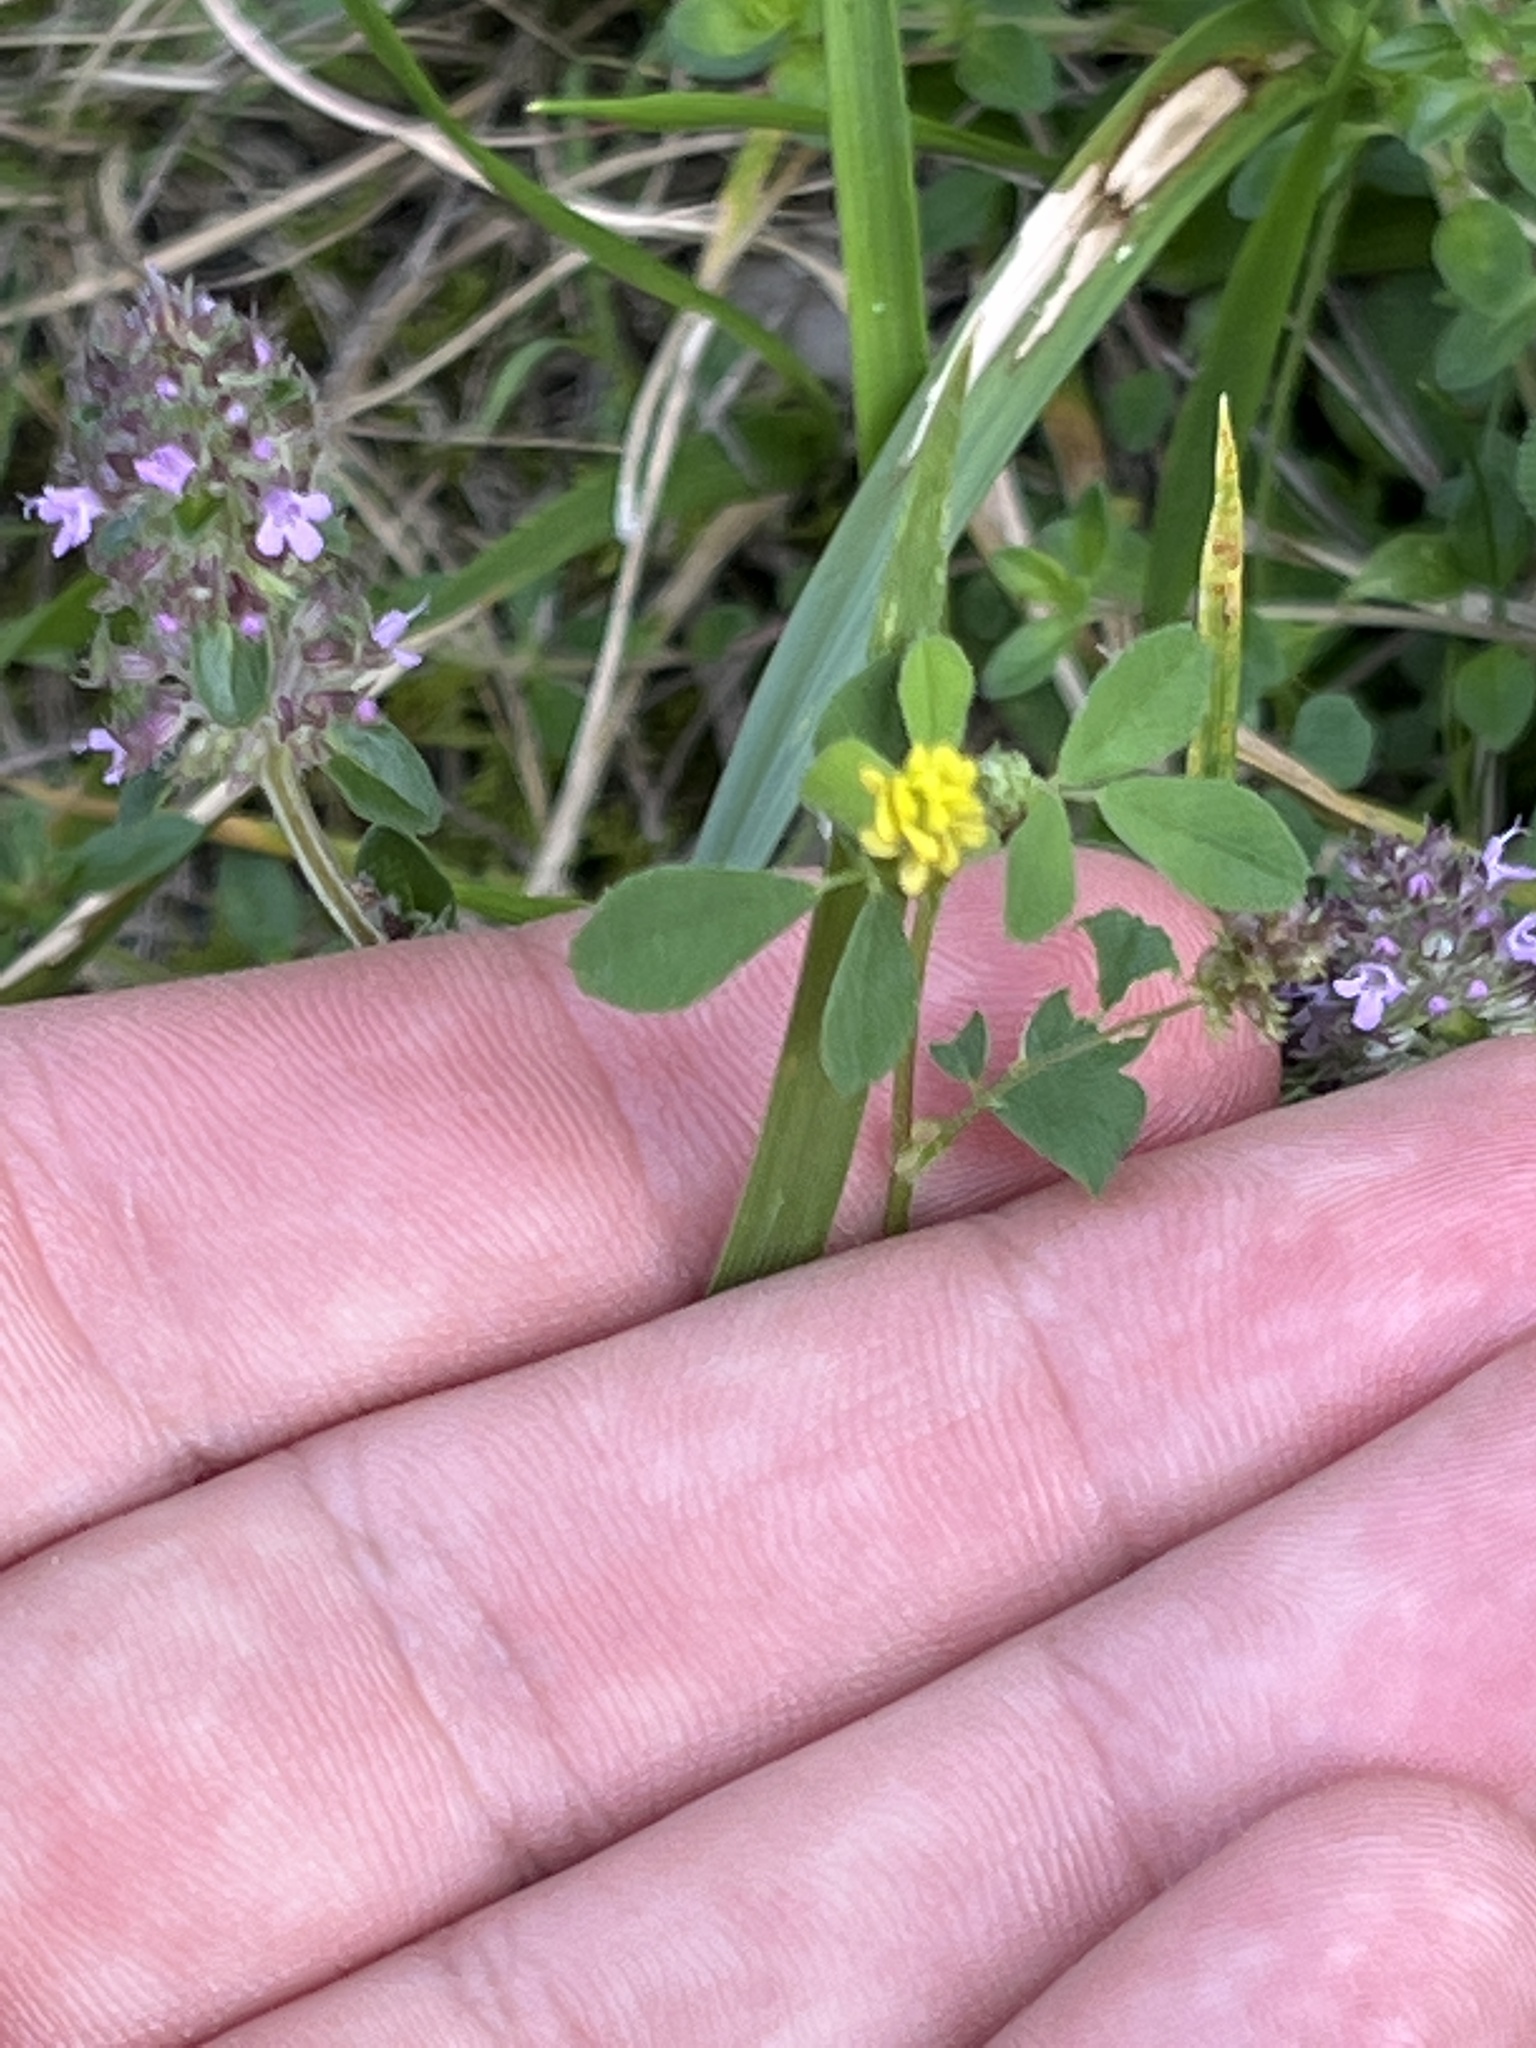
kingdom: Plantae
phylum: Tracheophyta
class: Magnoliopsida
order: Fabales
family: Fabaceae
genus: Medicago
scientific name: Medicago lupulina
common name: Black medick
